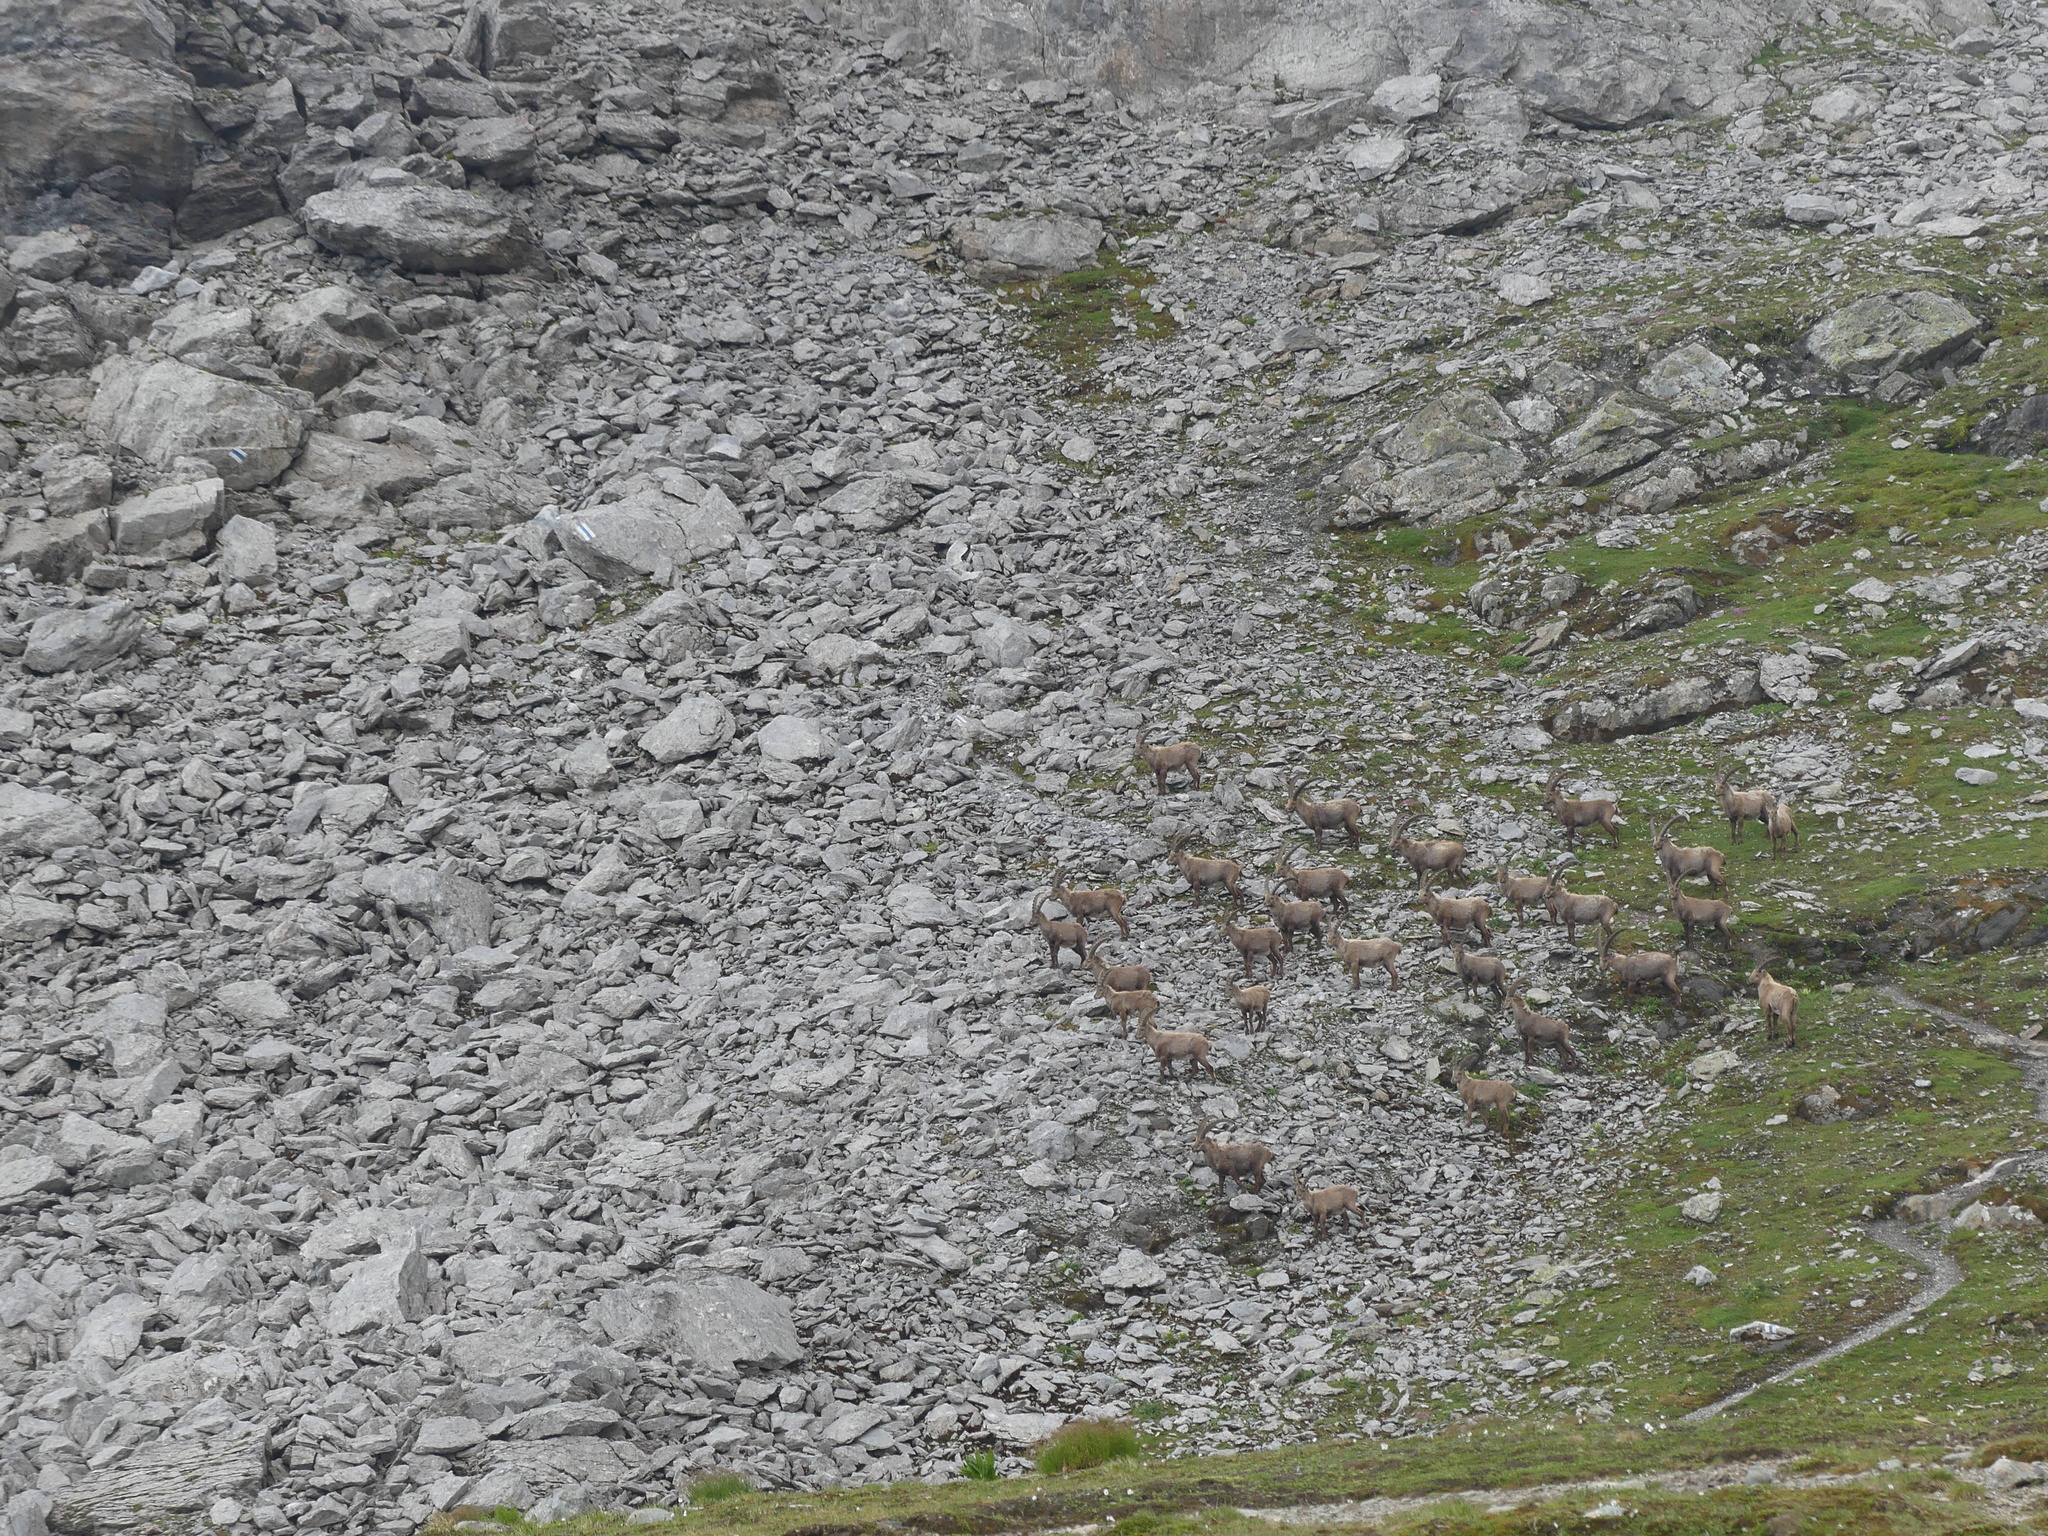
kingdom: Animalia
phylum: Chordata
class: Mammalia
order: Artiodactyla
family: Bovidae
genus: Capra
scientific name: Capra ibex
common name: Alpine ibex
